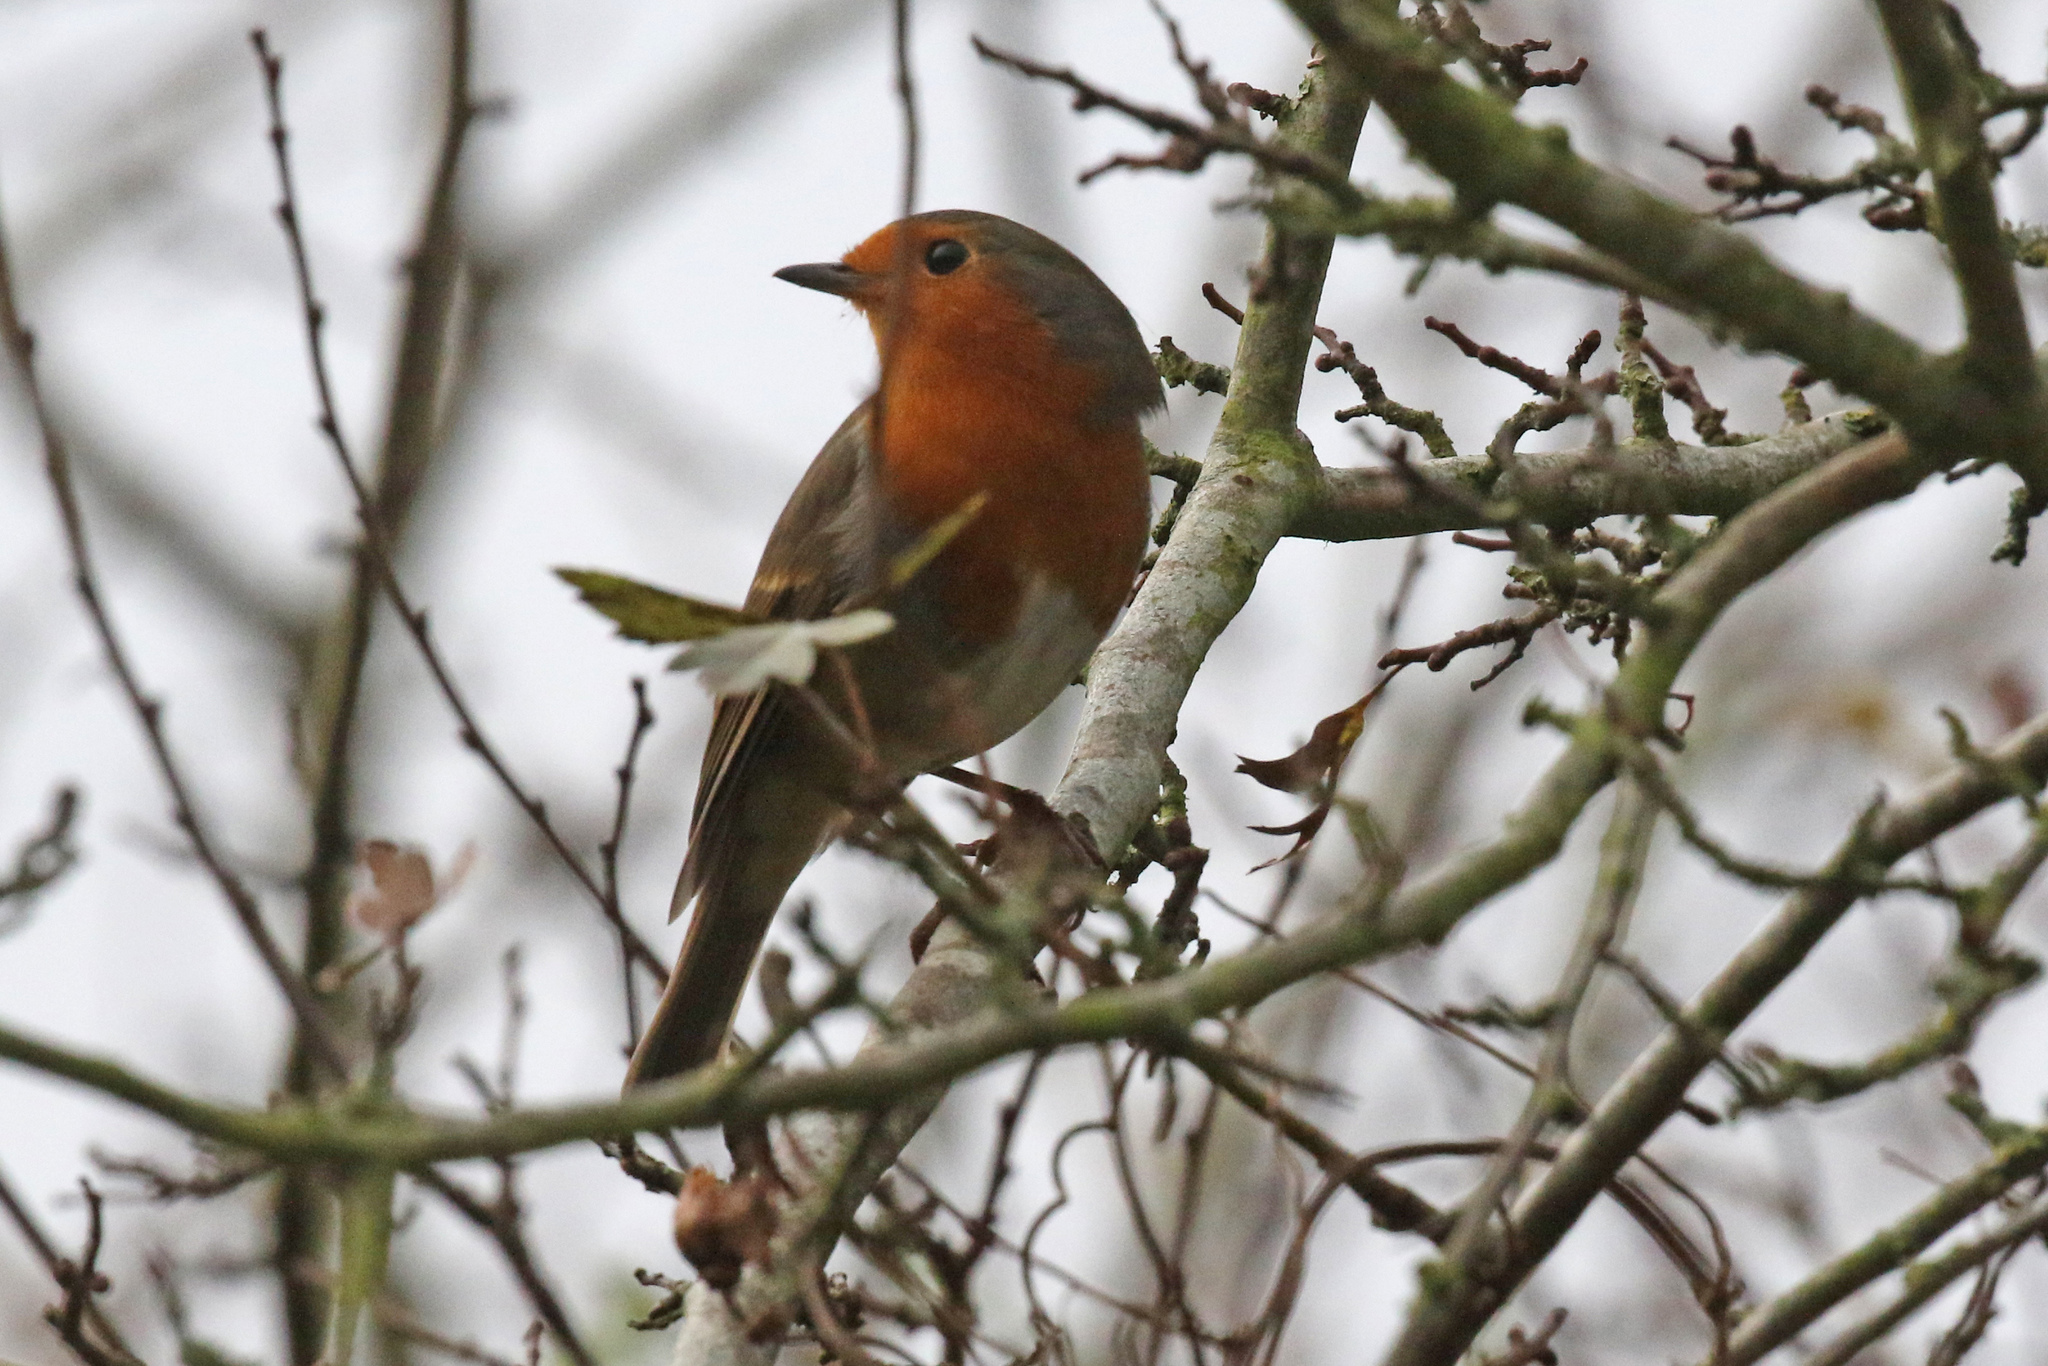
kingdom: Animalia
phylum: Chordata
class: Aves
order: Passeriformes
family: Muscicapidae
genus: Erithacus
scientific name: Erithacus rubecula
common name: European robin
